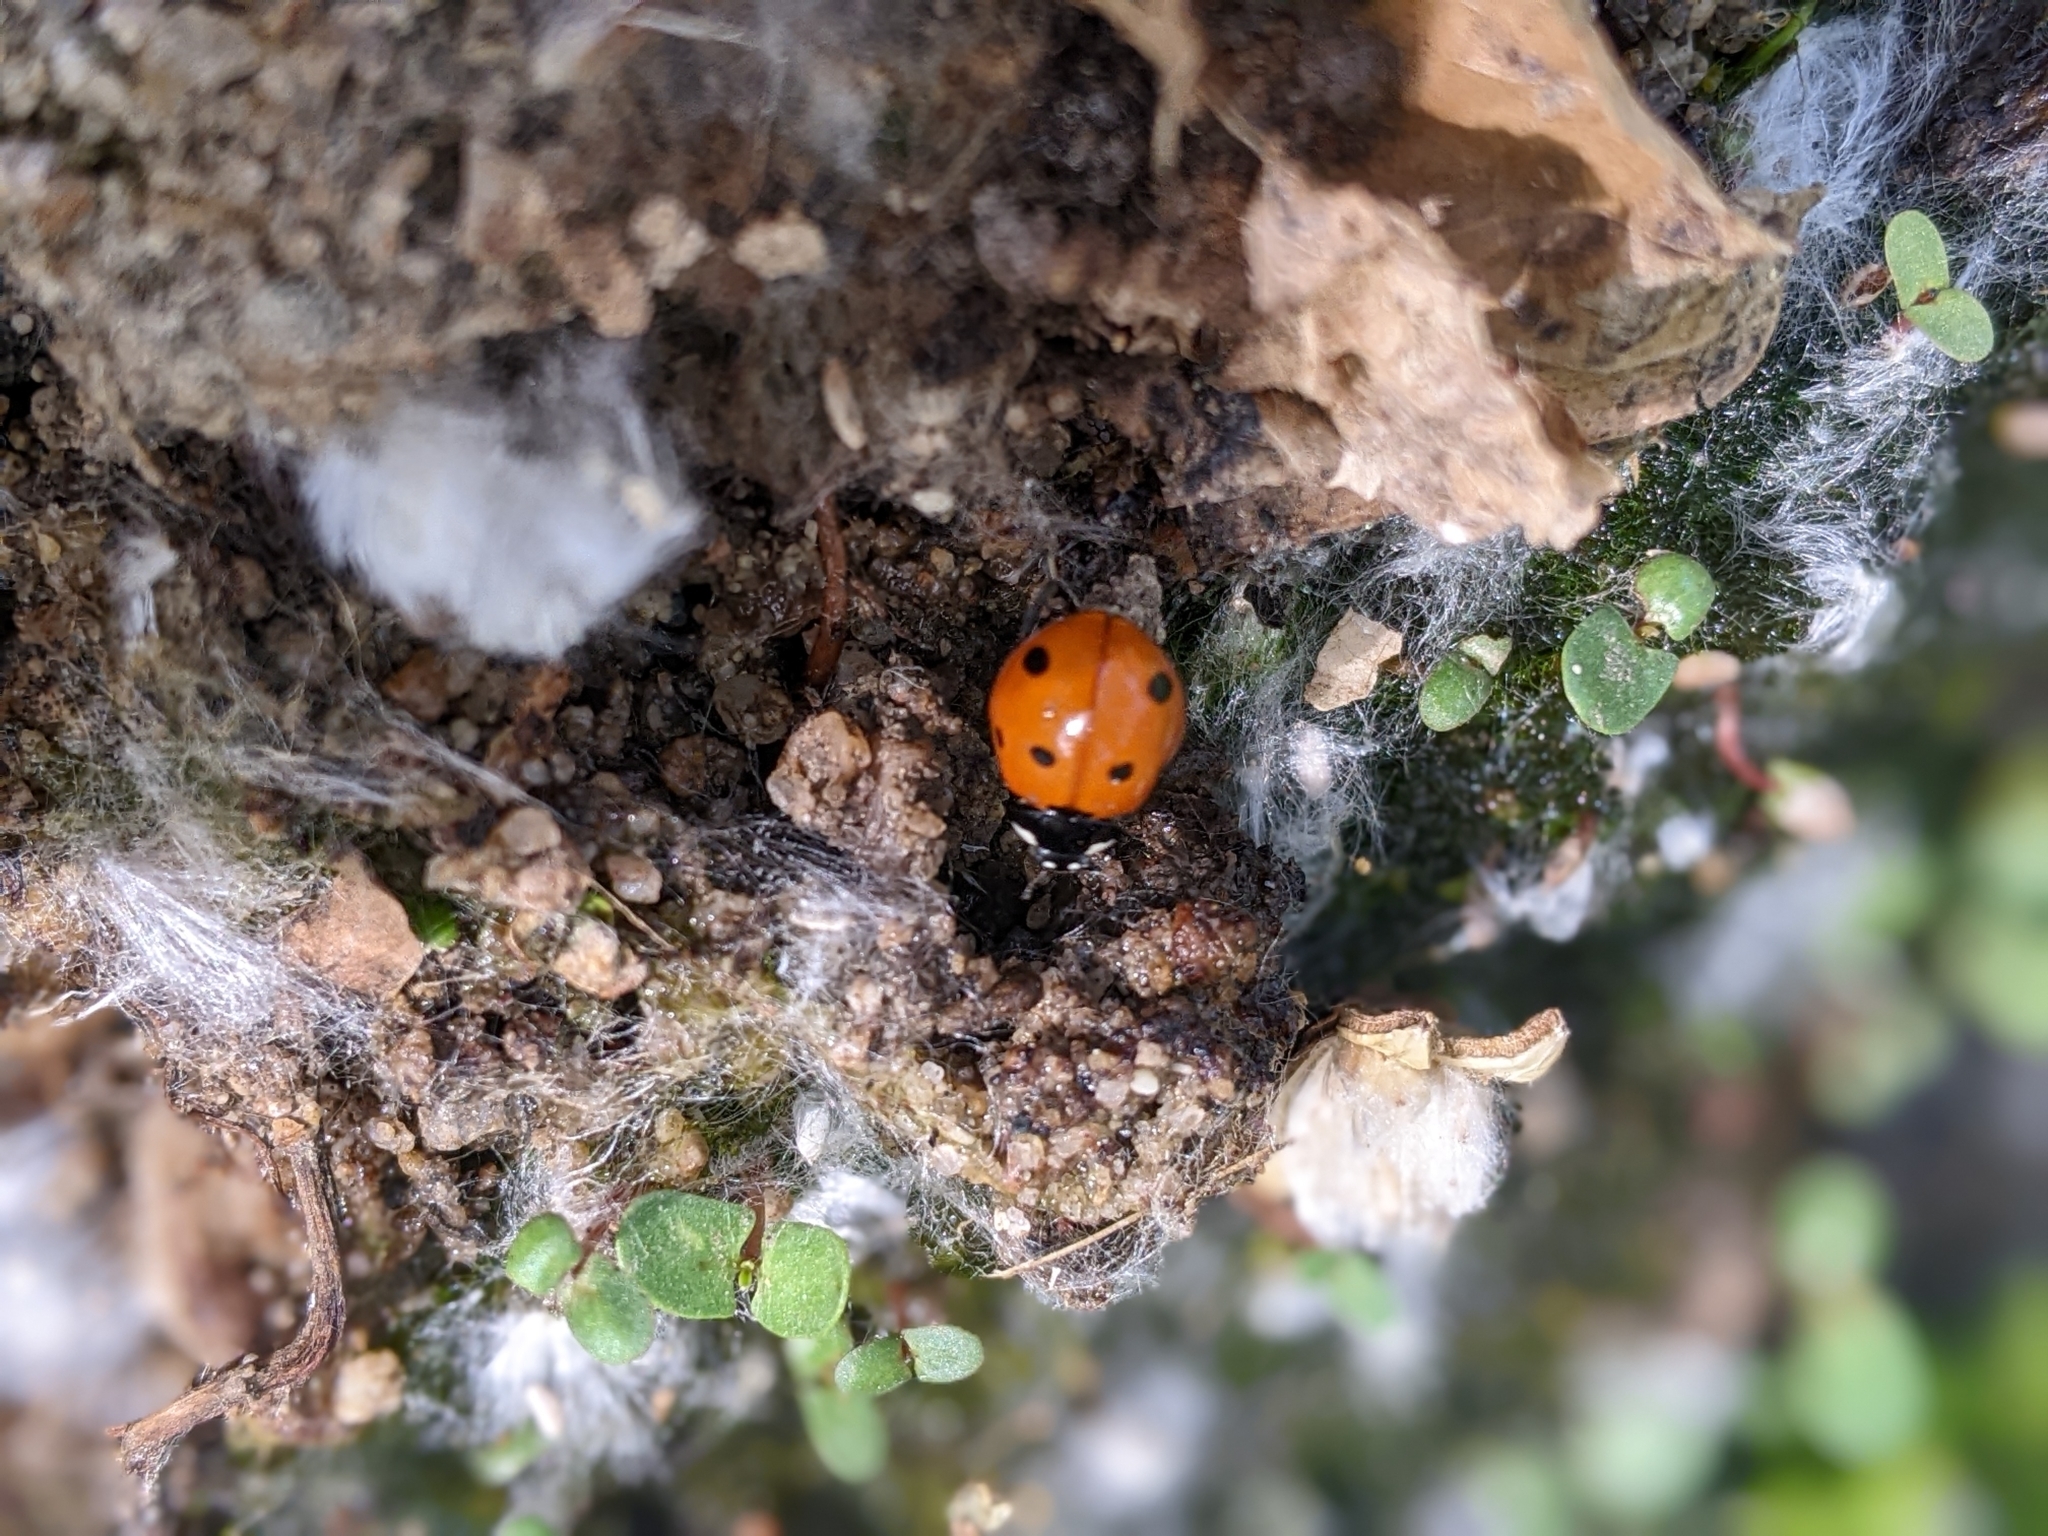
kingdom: Animalia
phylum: Arthropoda
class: Insecta
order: Coleoptera
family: Coccinellidae
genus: Coccinella
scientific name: Coccinella septempunctata
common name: Sevenspotted lady beetle
